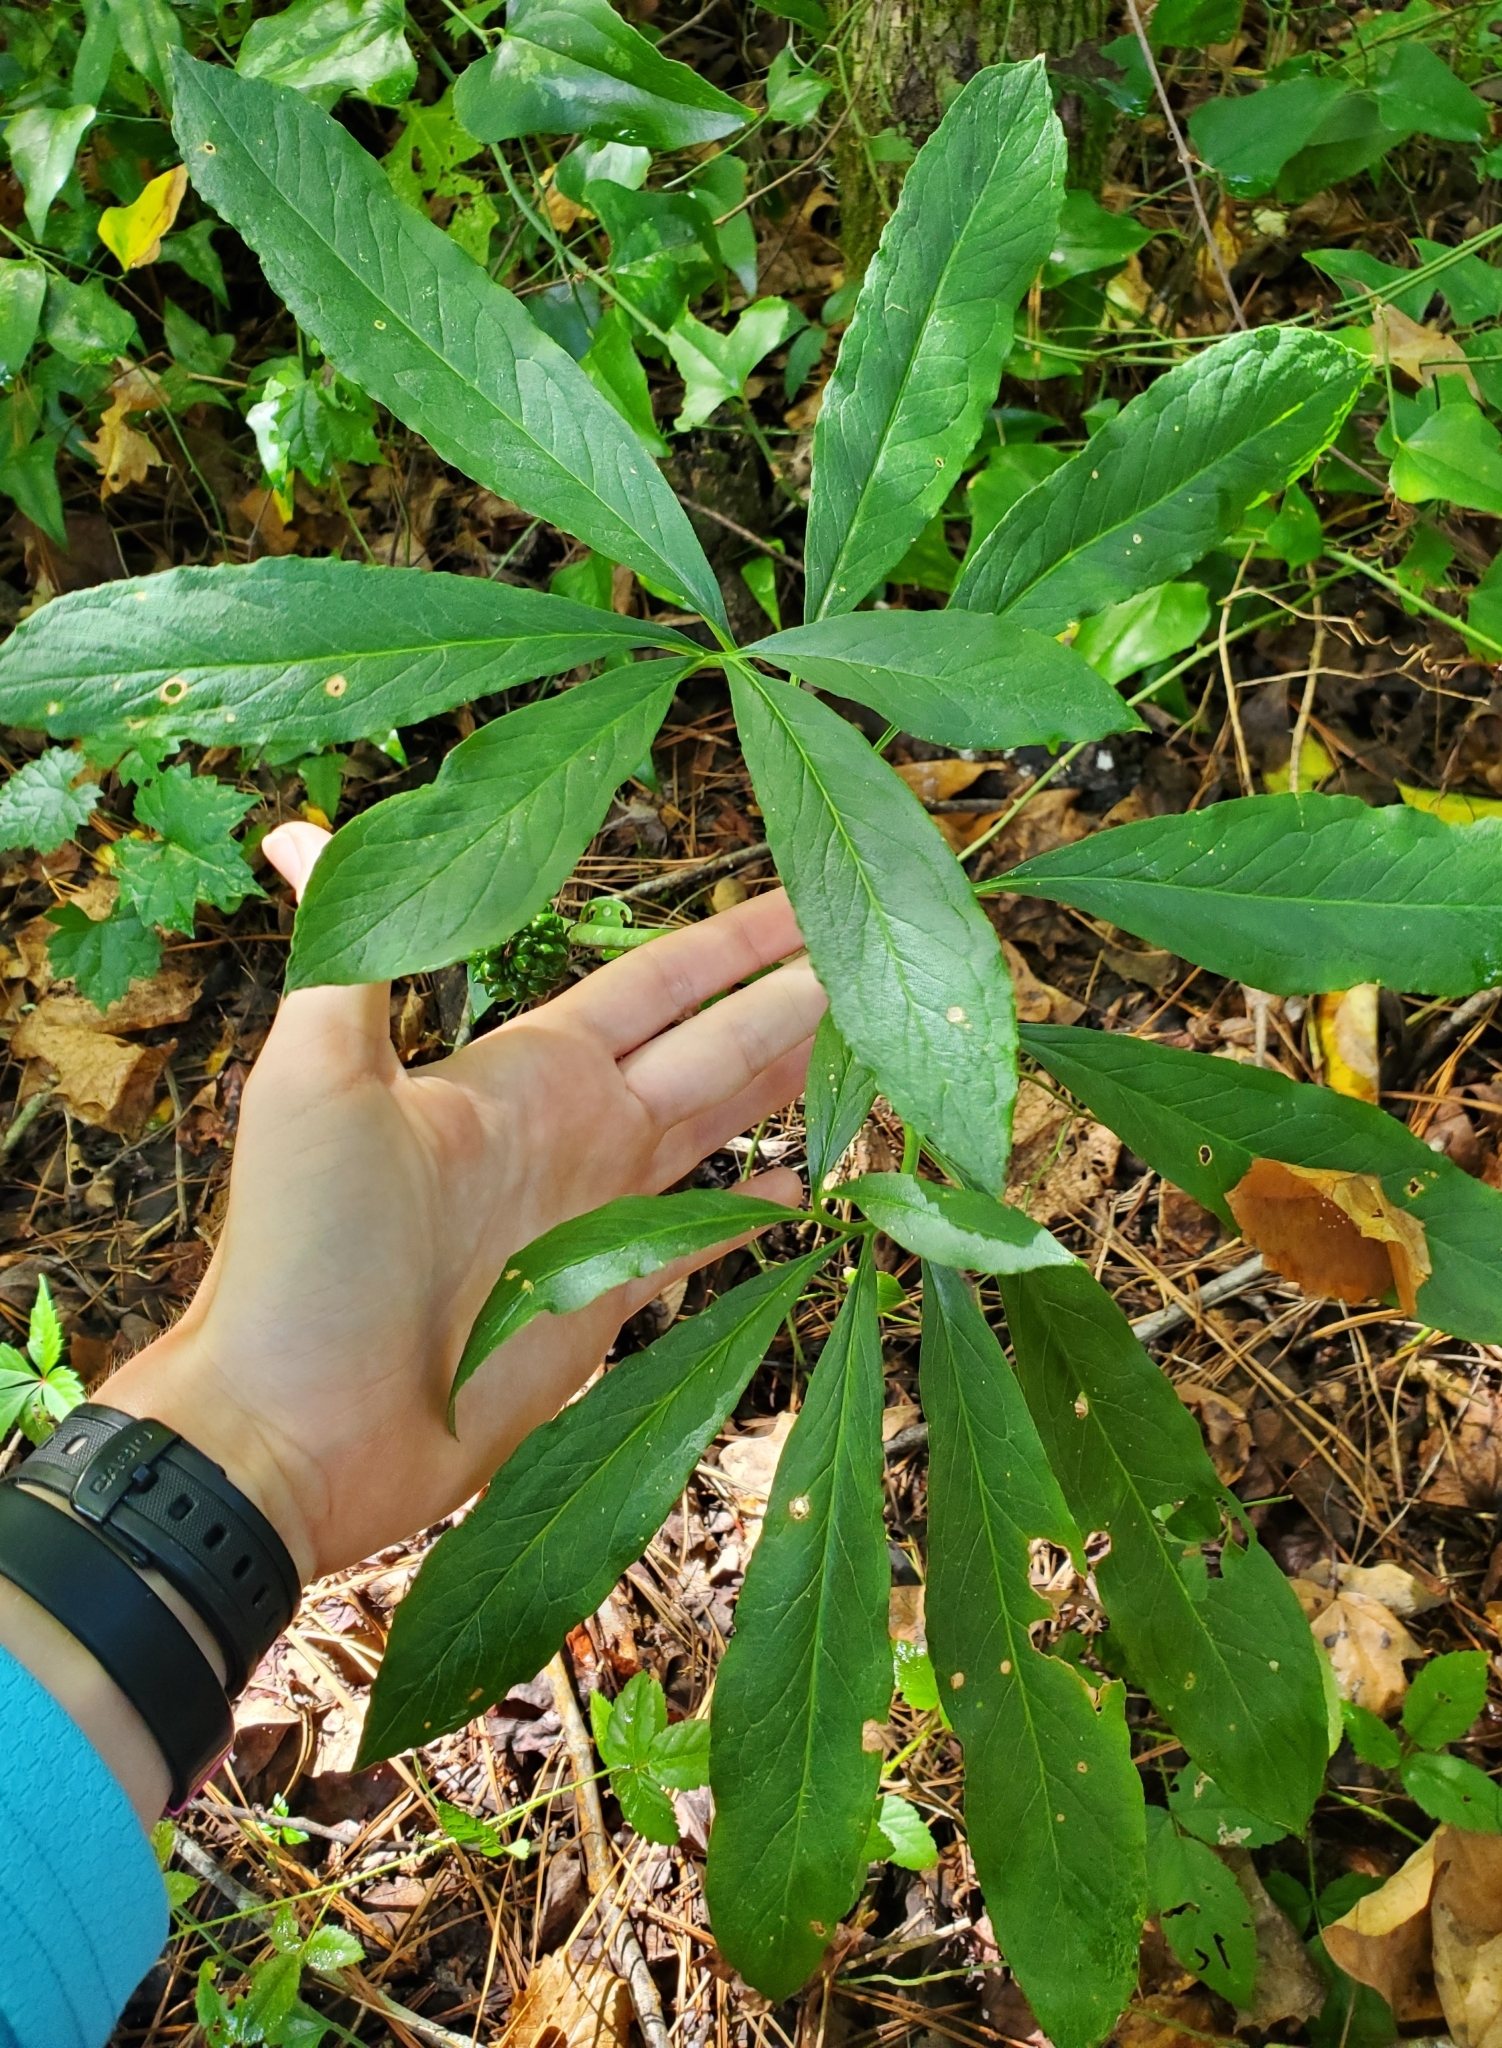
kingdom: Plantae
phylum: Tracheophyta
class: Liliopsida
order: Alismatales
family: Araceae
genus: Arisaema
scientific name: Arisaema dracontium
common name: Dragon-arum
